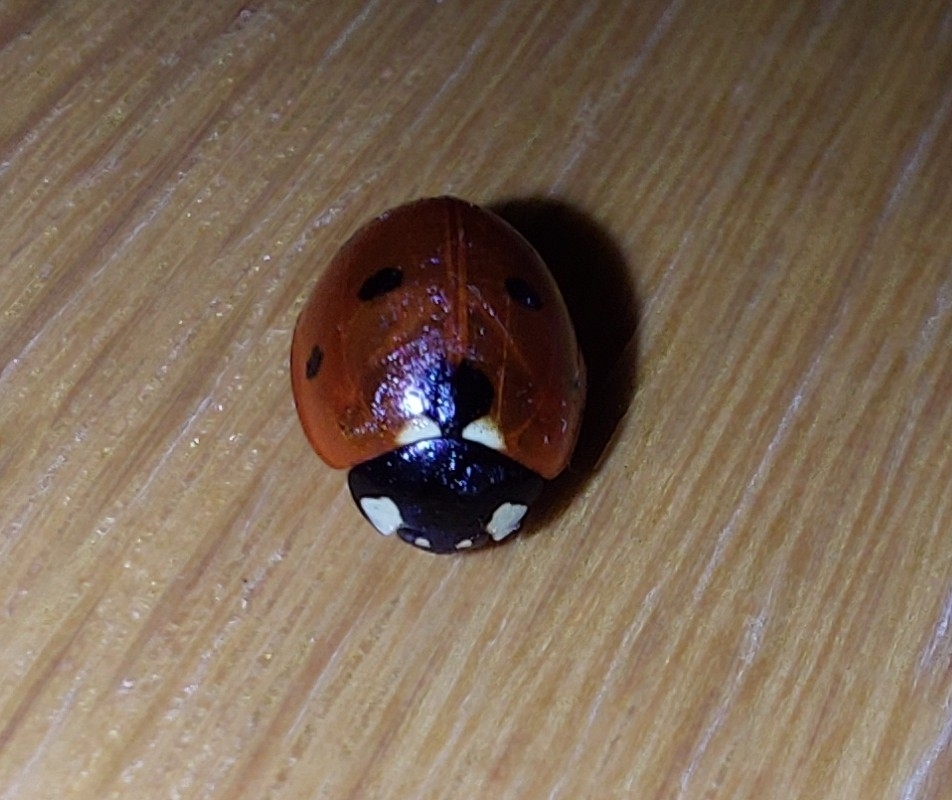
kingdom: Animalia
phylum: Arthropoda
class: Insecta
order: Coleoptera
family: Coccinellidae
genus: Coccinella
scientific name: Coccinella septempunctata
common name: Sevenspotted lady beetle
